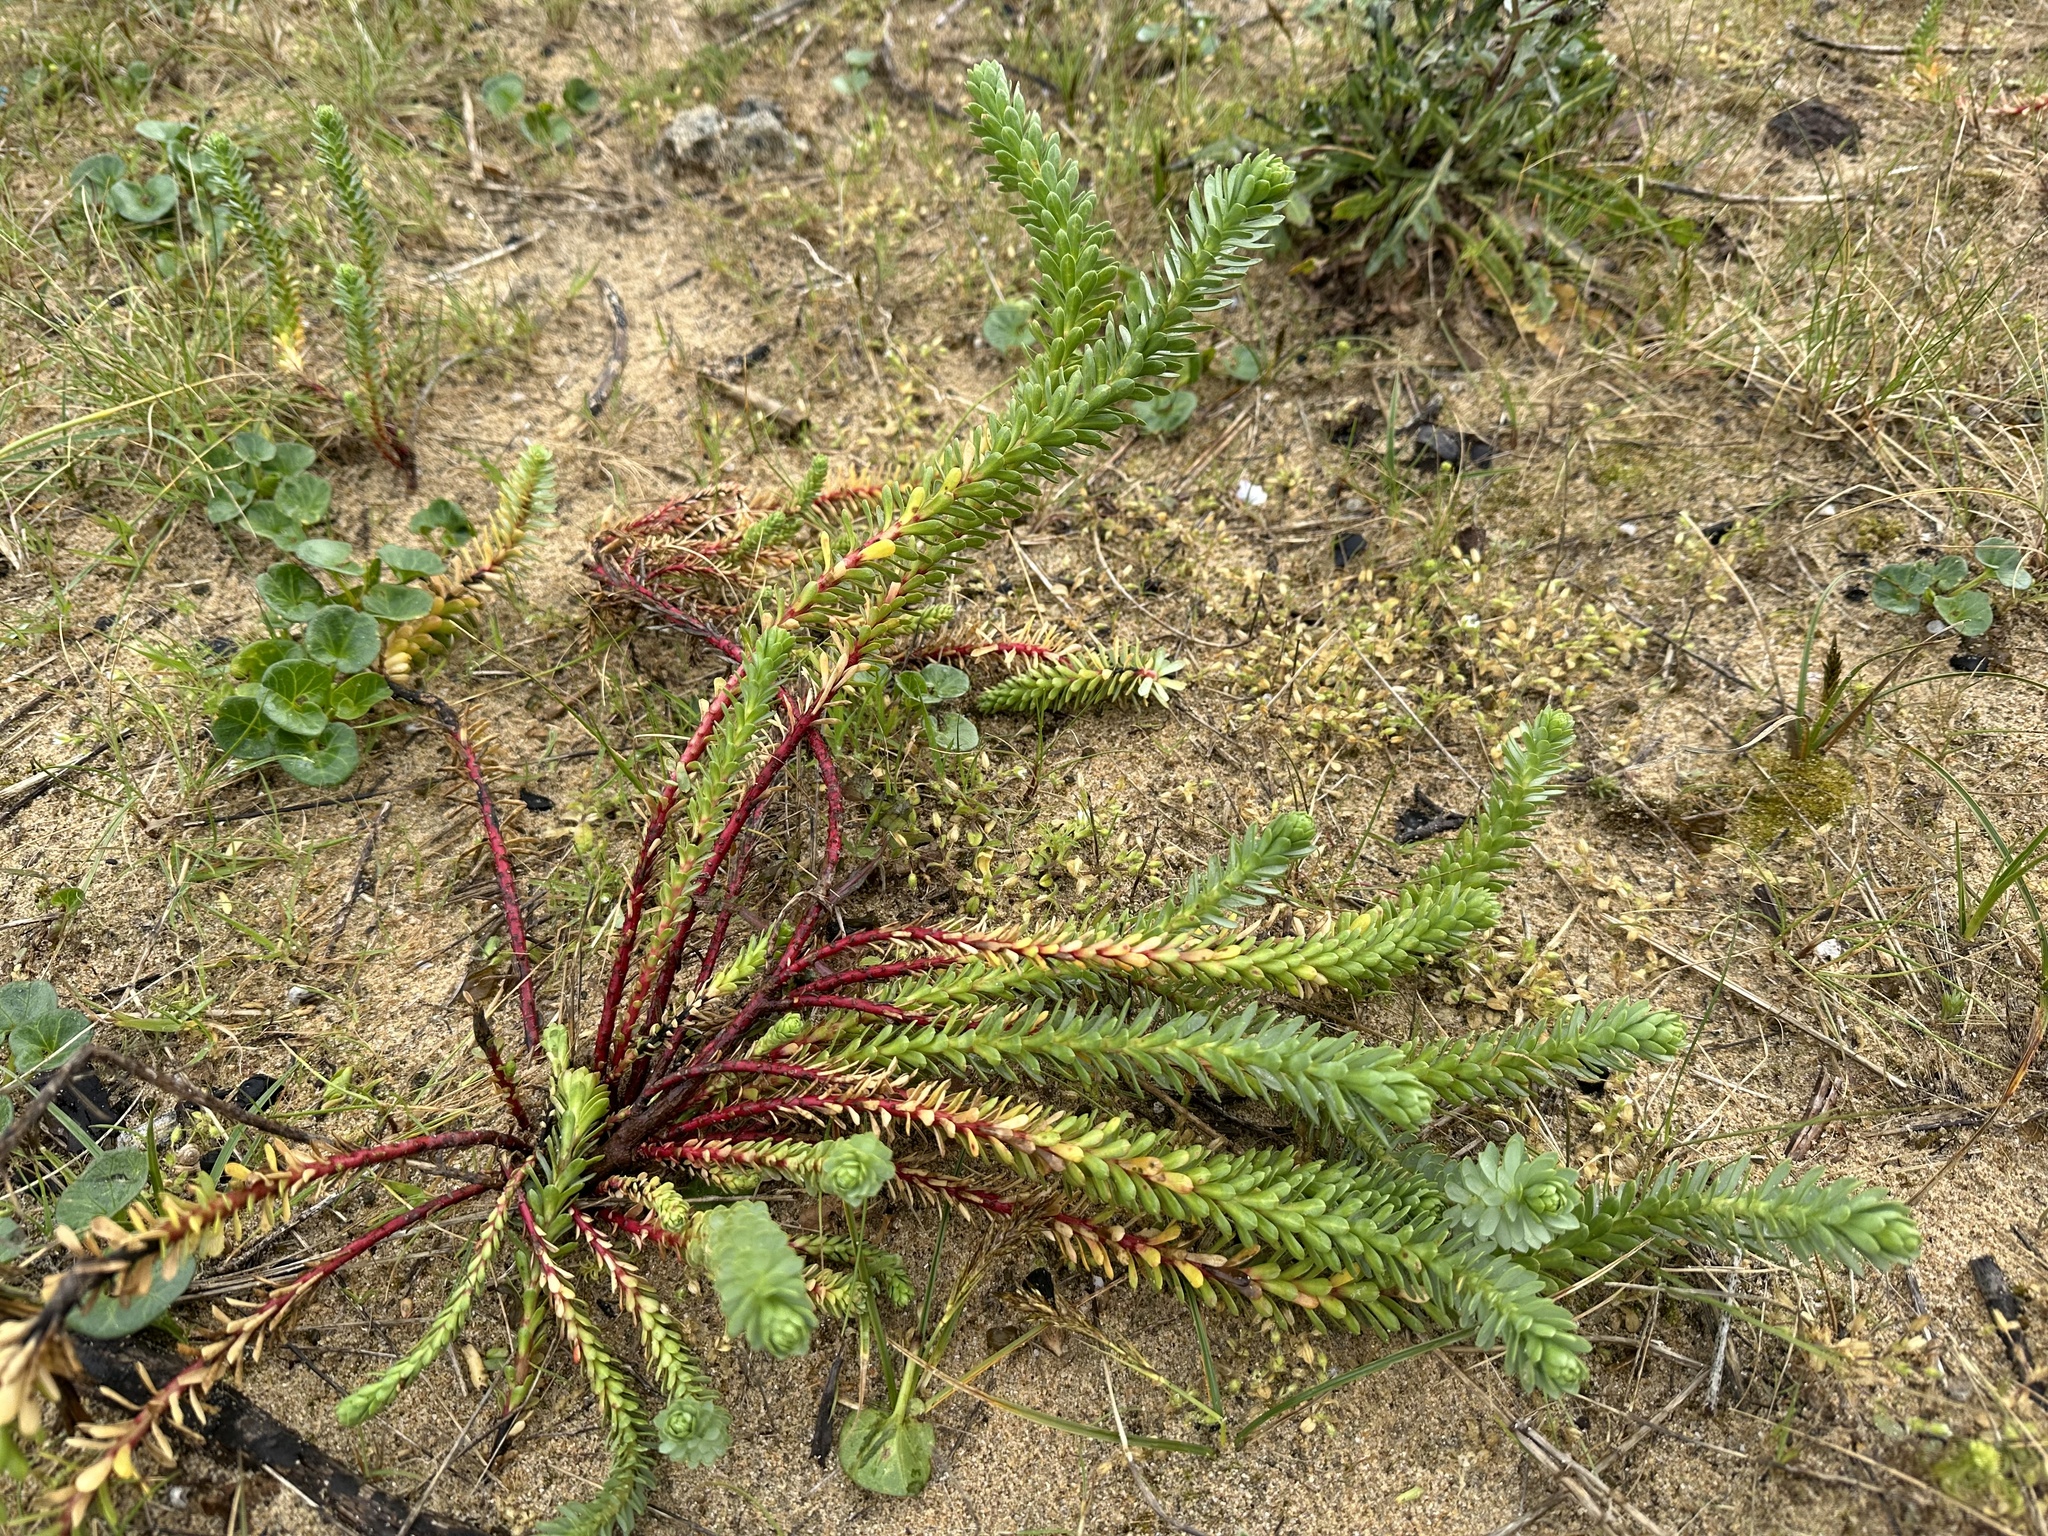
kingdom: Plantae
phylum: Tracheophyta
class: Magnoliopsida
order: Malpighiales
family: Euphorbiaceae
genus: Euphorbia
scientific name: Euphorbia paralias
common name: Sea spurge
